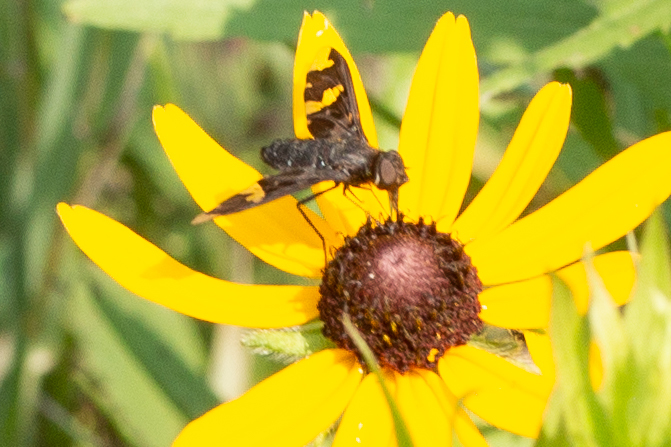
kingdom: Animalia
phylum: Arthropoda
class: Insecta
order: Diptera
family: Bombyliidae
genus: Exoprosopa
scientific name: Exoprosopa decora
